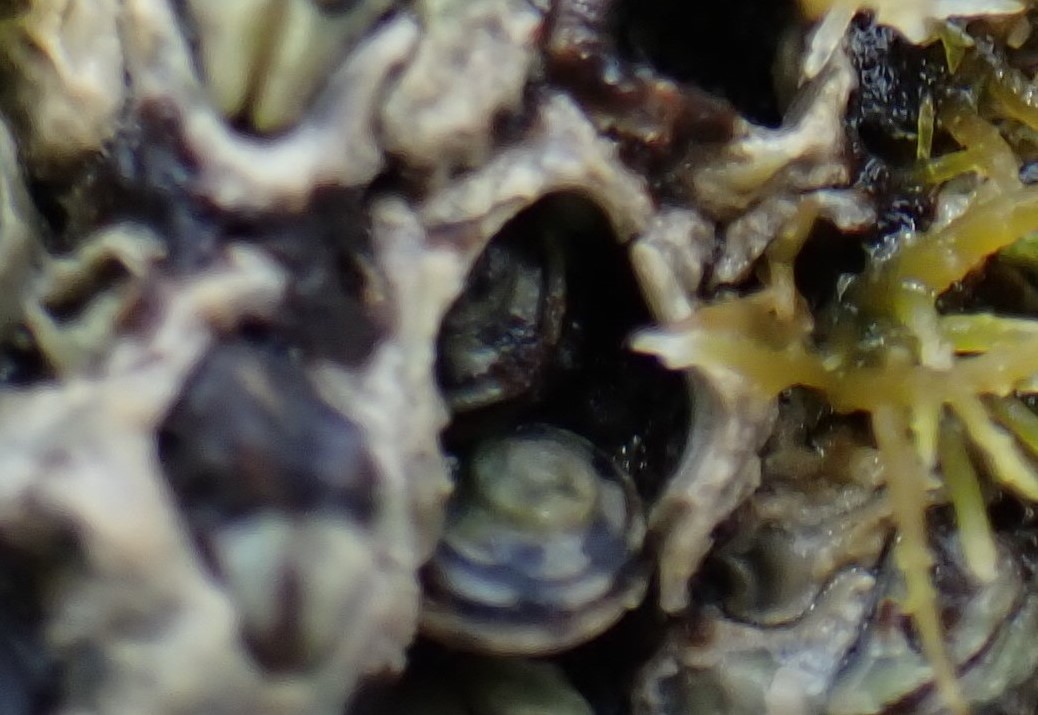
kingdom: Animalia
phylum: Mollusca
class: Gastropoda
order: Littorinimorpha
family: Littorinidae
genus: Risellopsis
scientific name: Risellopsis varia
